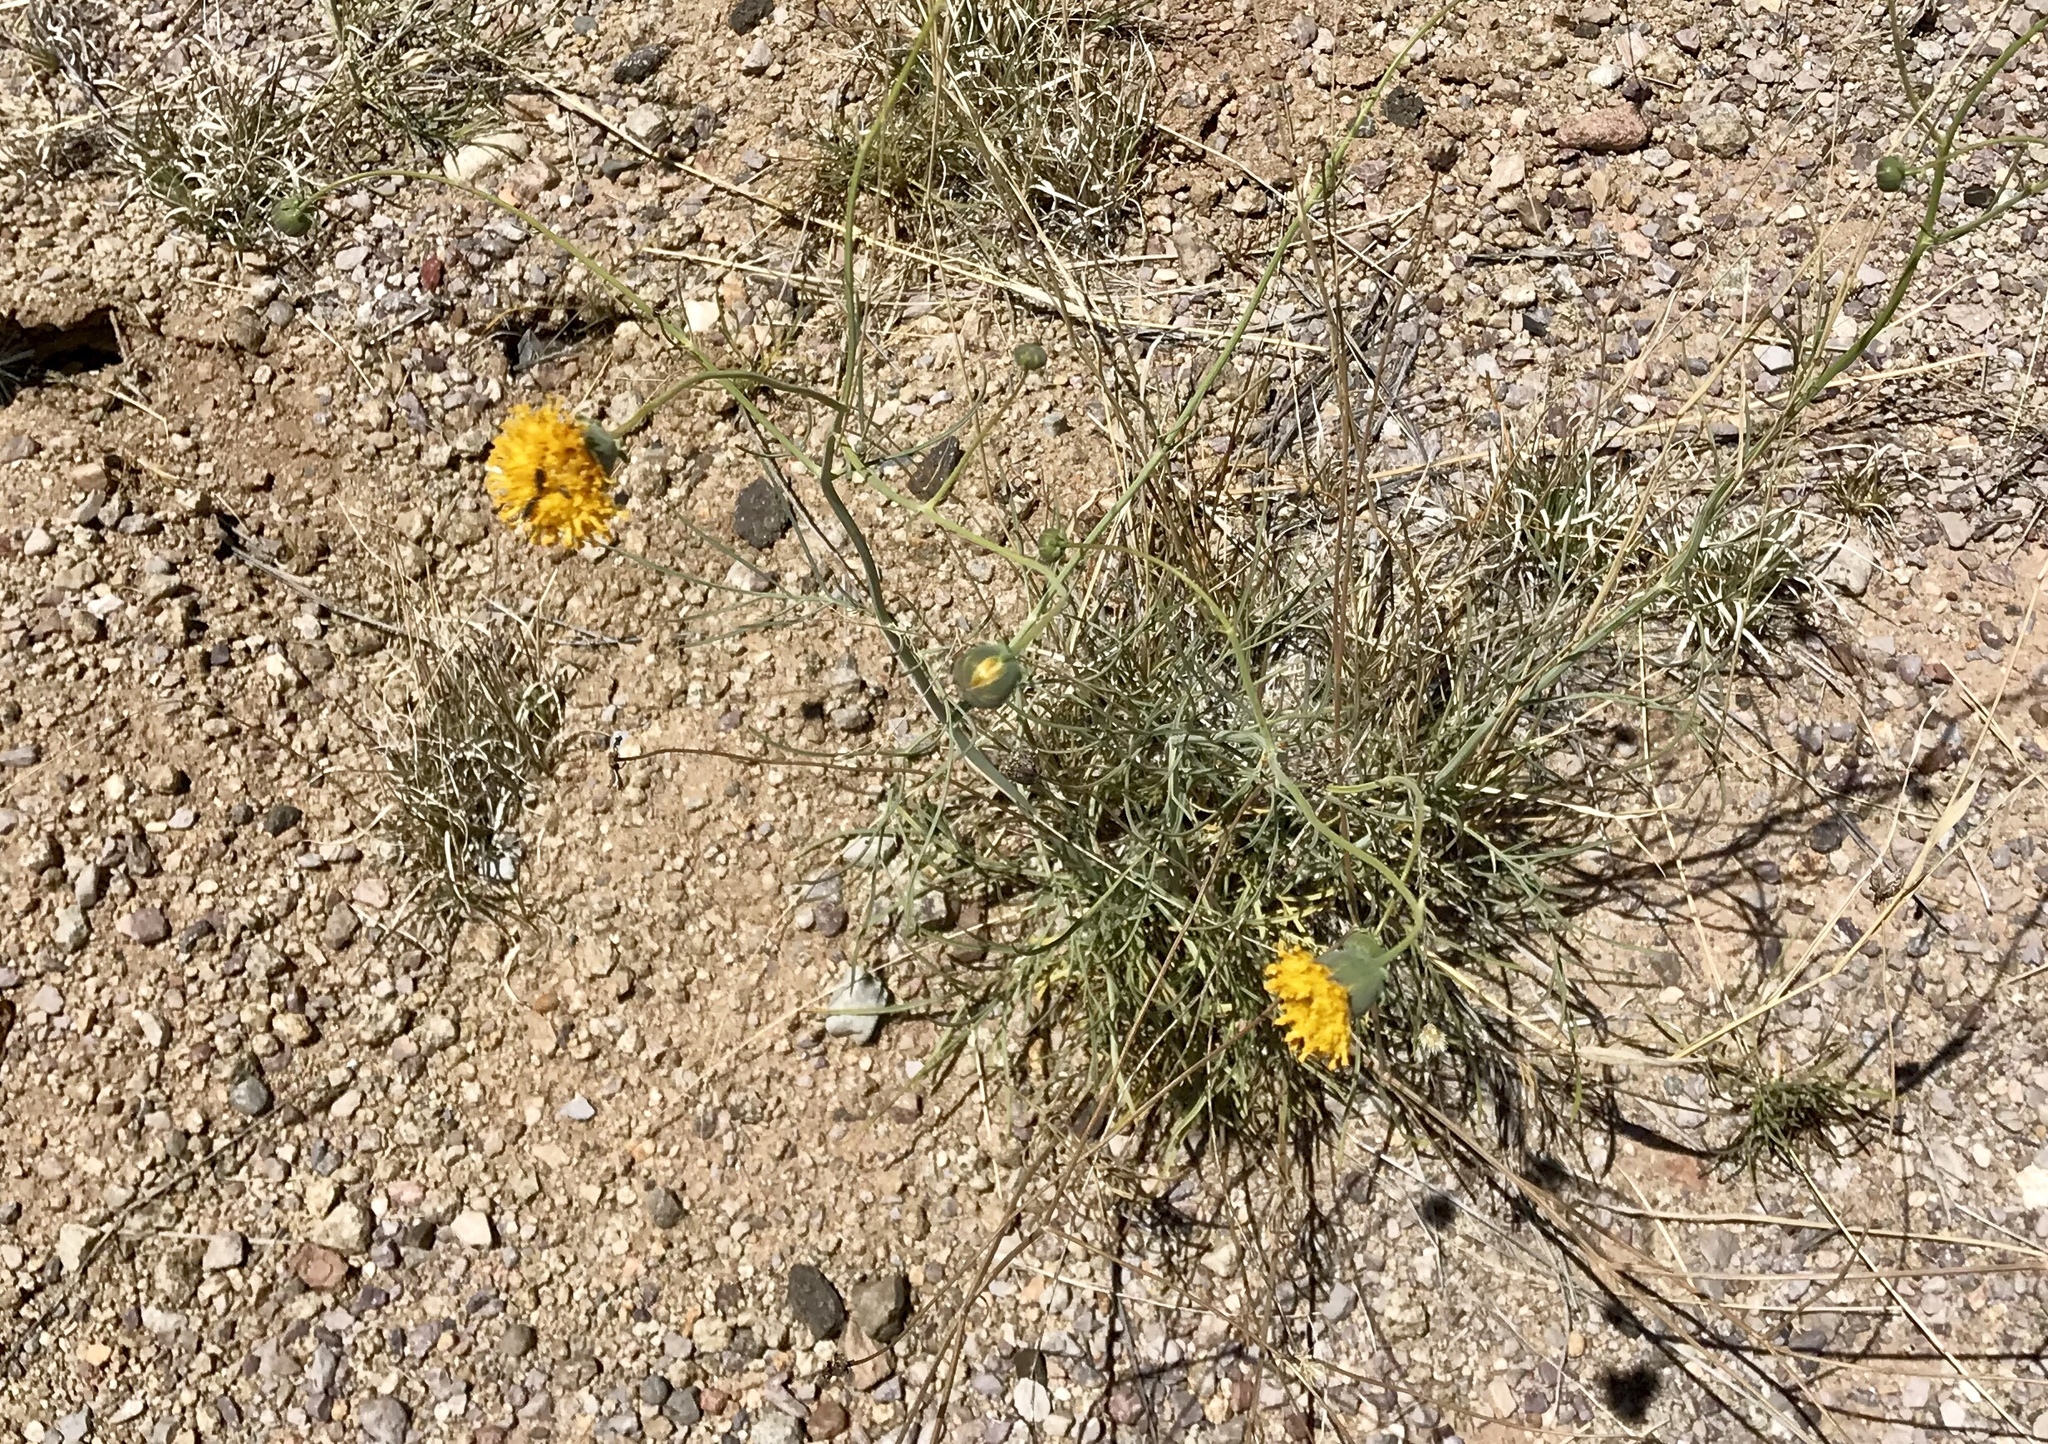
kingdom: Plantae
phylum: Tracheophyta
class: Magnoliopsida
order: Asterales
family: Asteraceae
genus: Thelesperma
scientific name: Thelesperma megapotamicum
